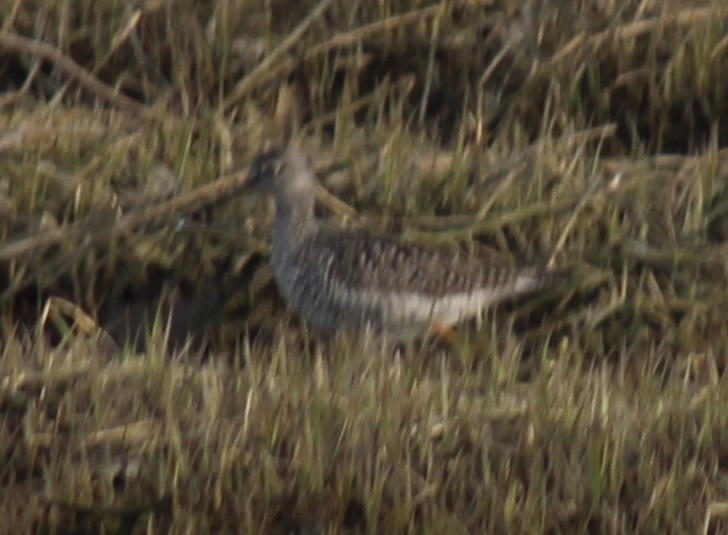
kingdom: Animalia
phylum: Chordata
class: Aves
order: Charadriiformes
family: Scolopacidae
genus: Tringa
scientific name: Tringa melanoleuca
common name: Greater yellowlegs
